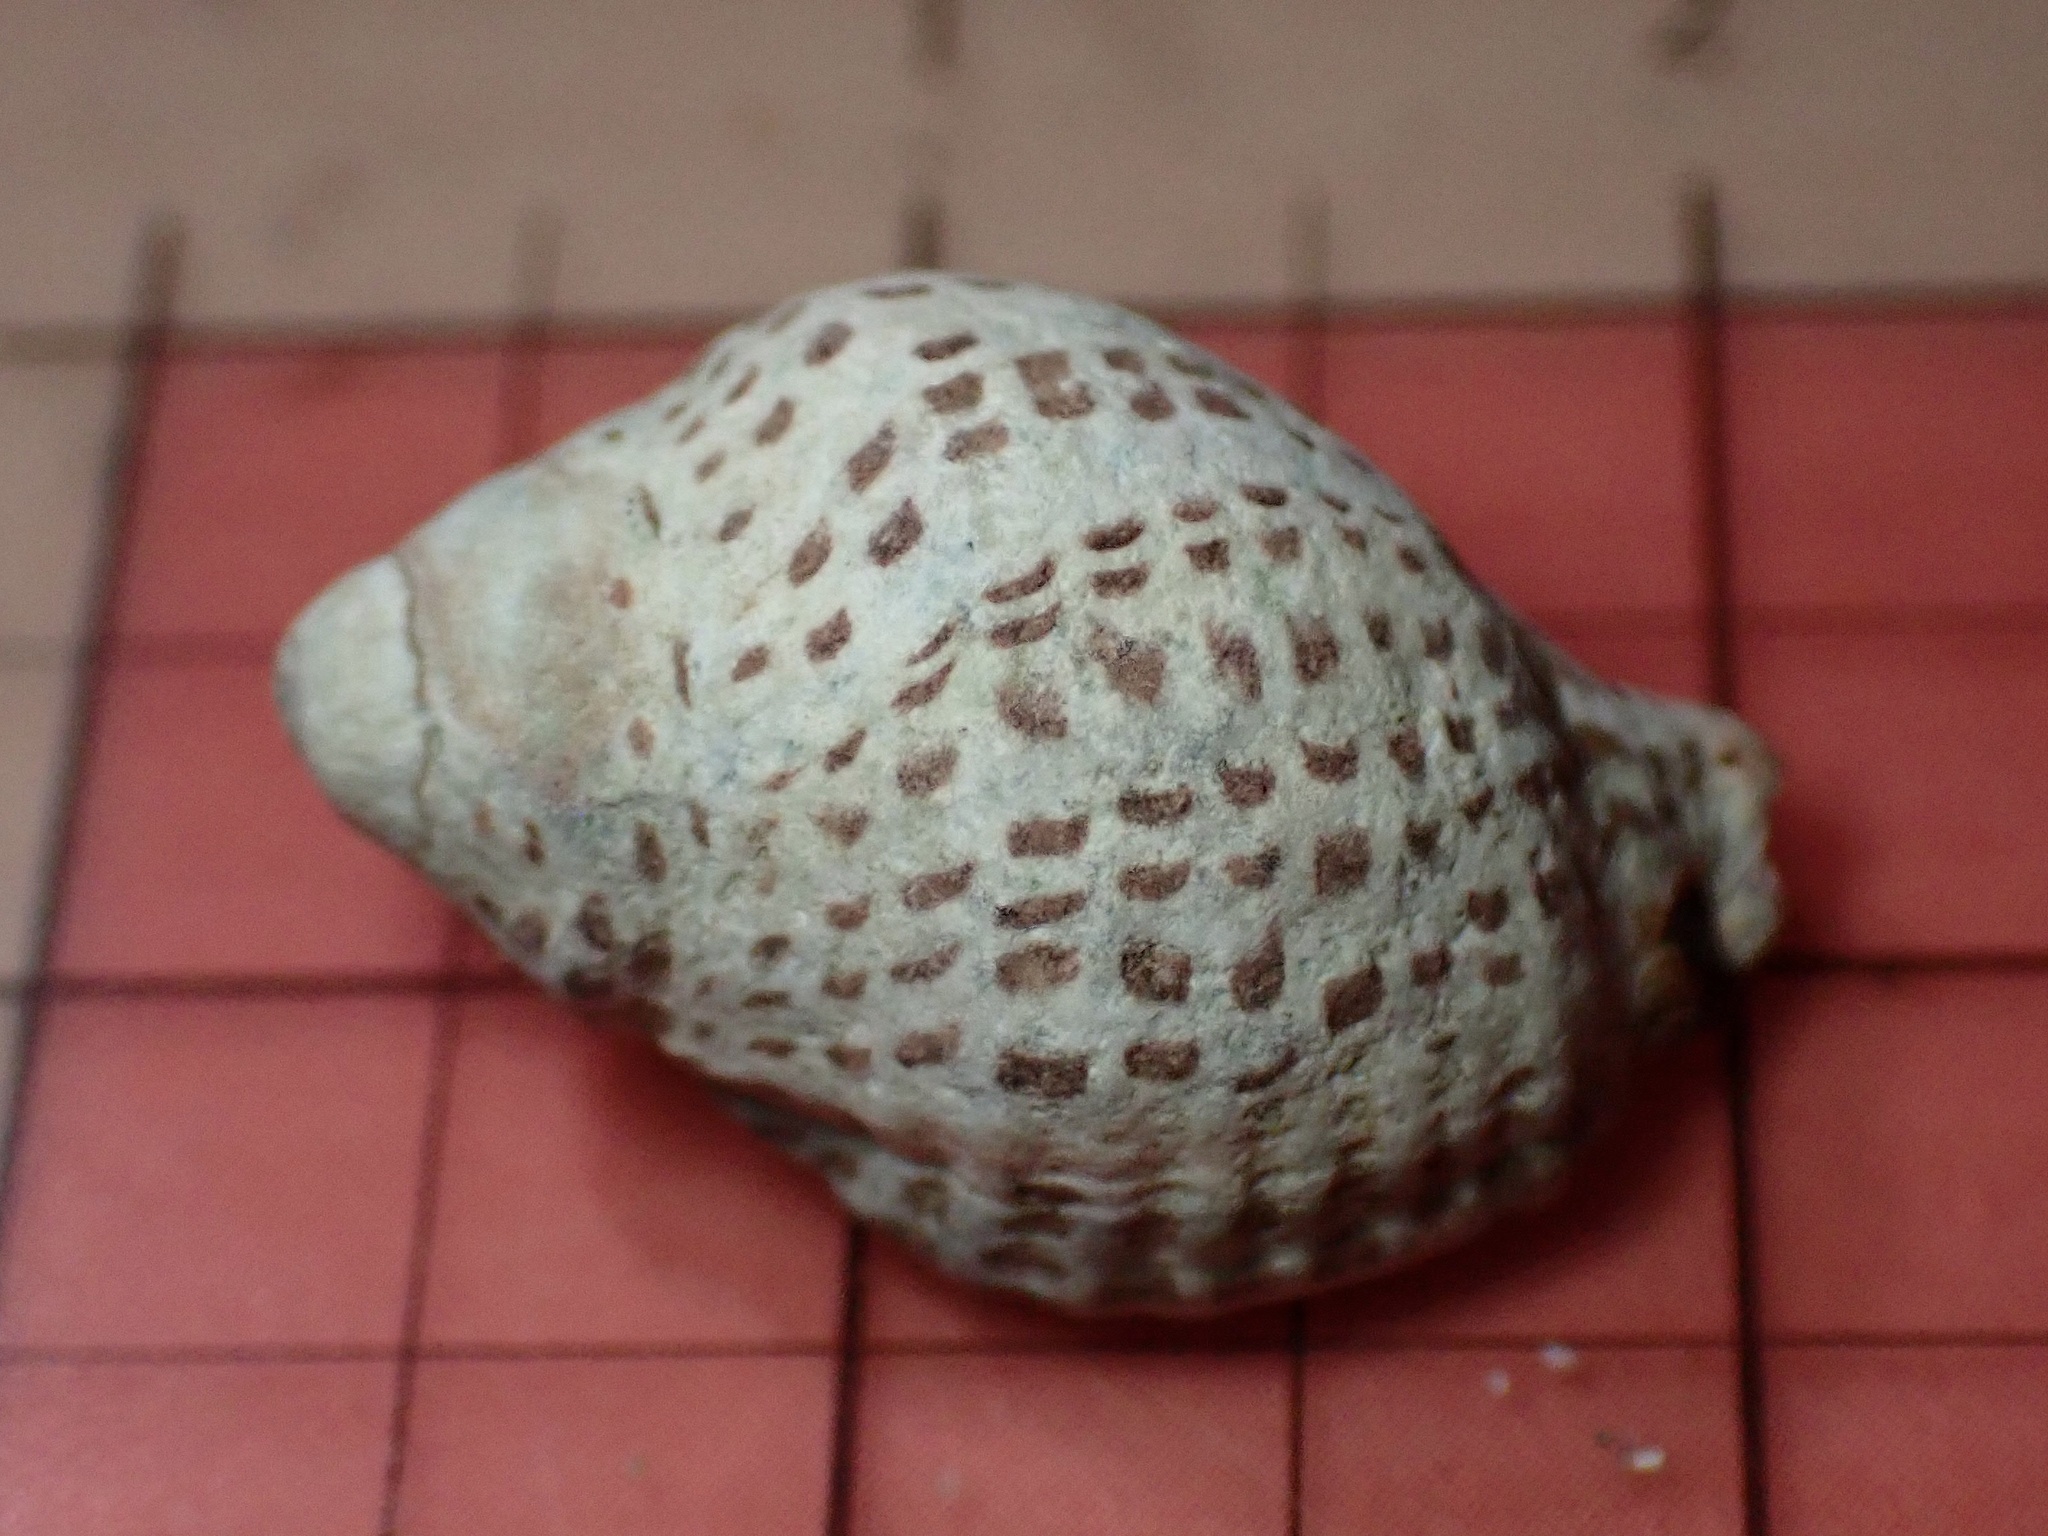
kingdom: Animalia
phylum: Mollusca
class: Gastropoda
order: Neogastropoda
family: Muricidae
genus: Acanthinucella
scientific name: Acanthinucella punctulata
